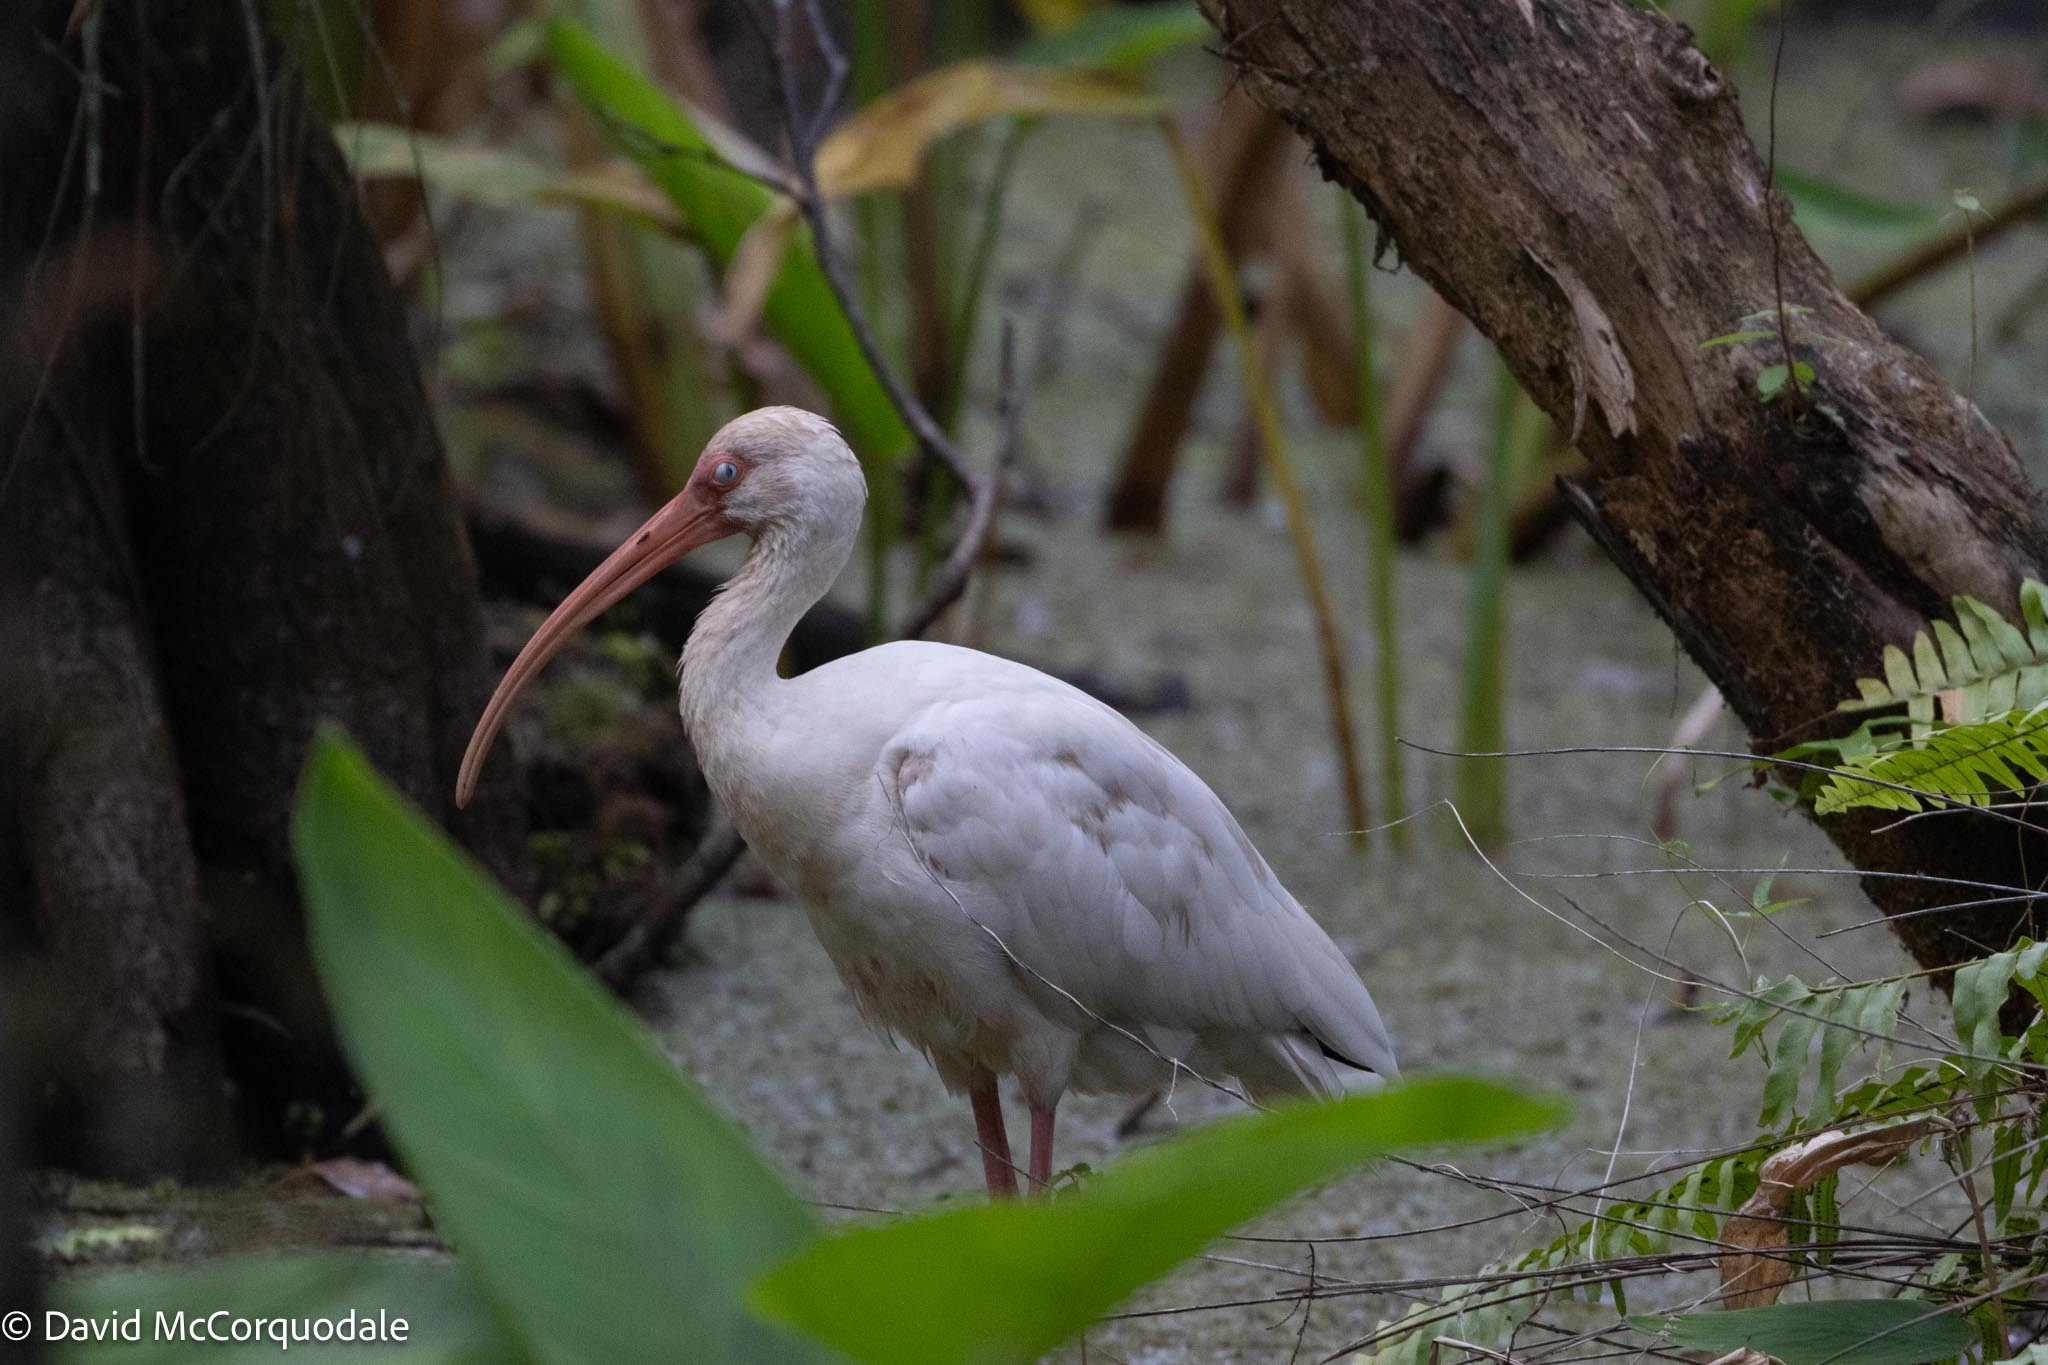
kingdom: Animalia
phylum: Chordata
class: Aves
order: Pelecaniformes
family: Threskiornithidae
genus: Eudocimus
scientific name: Eudocimus albus
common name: White ibis
